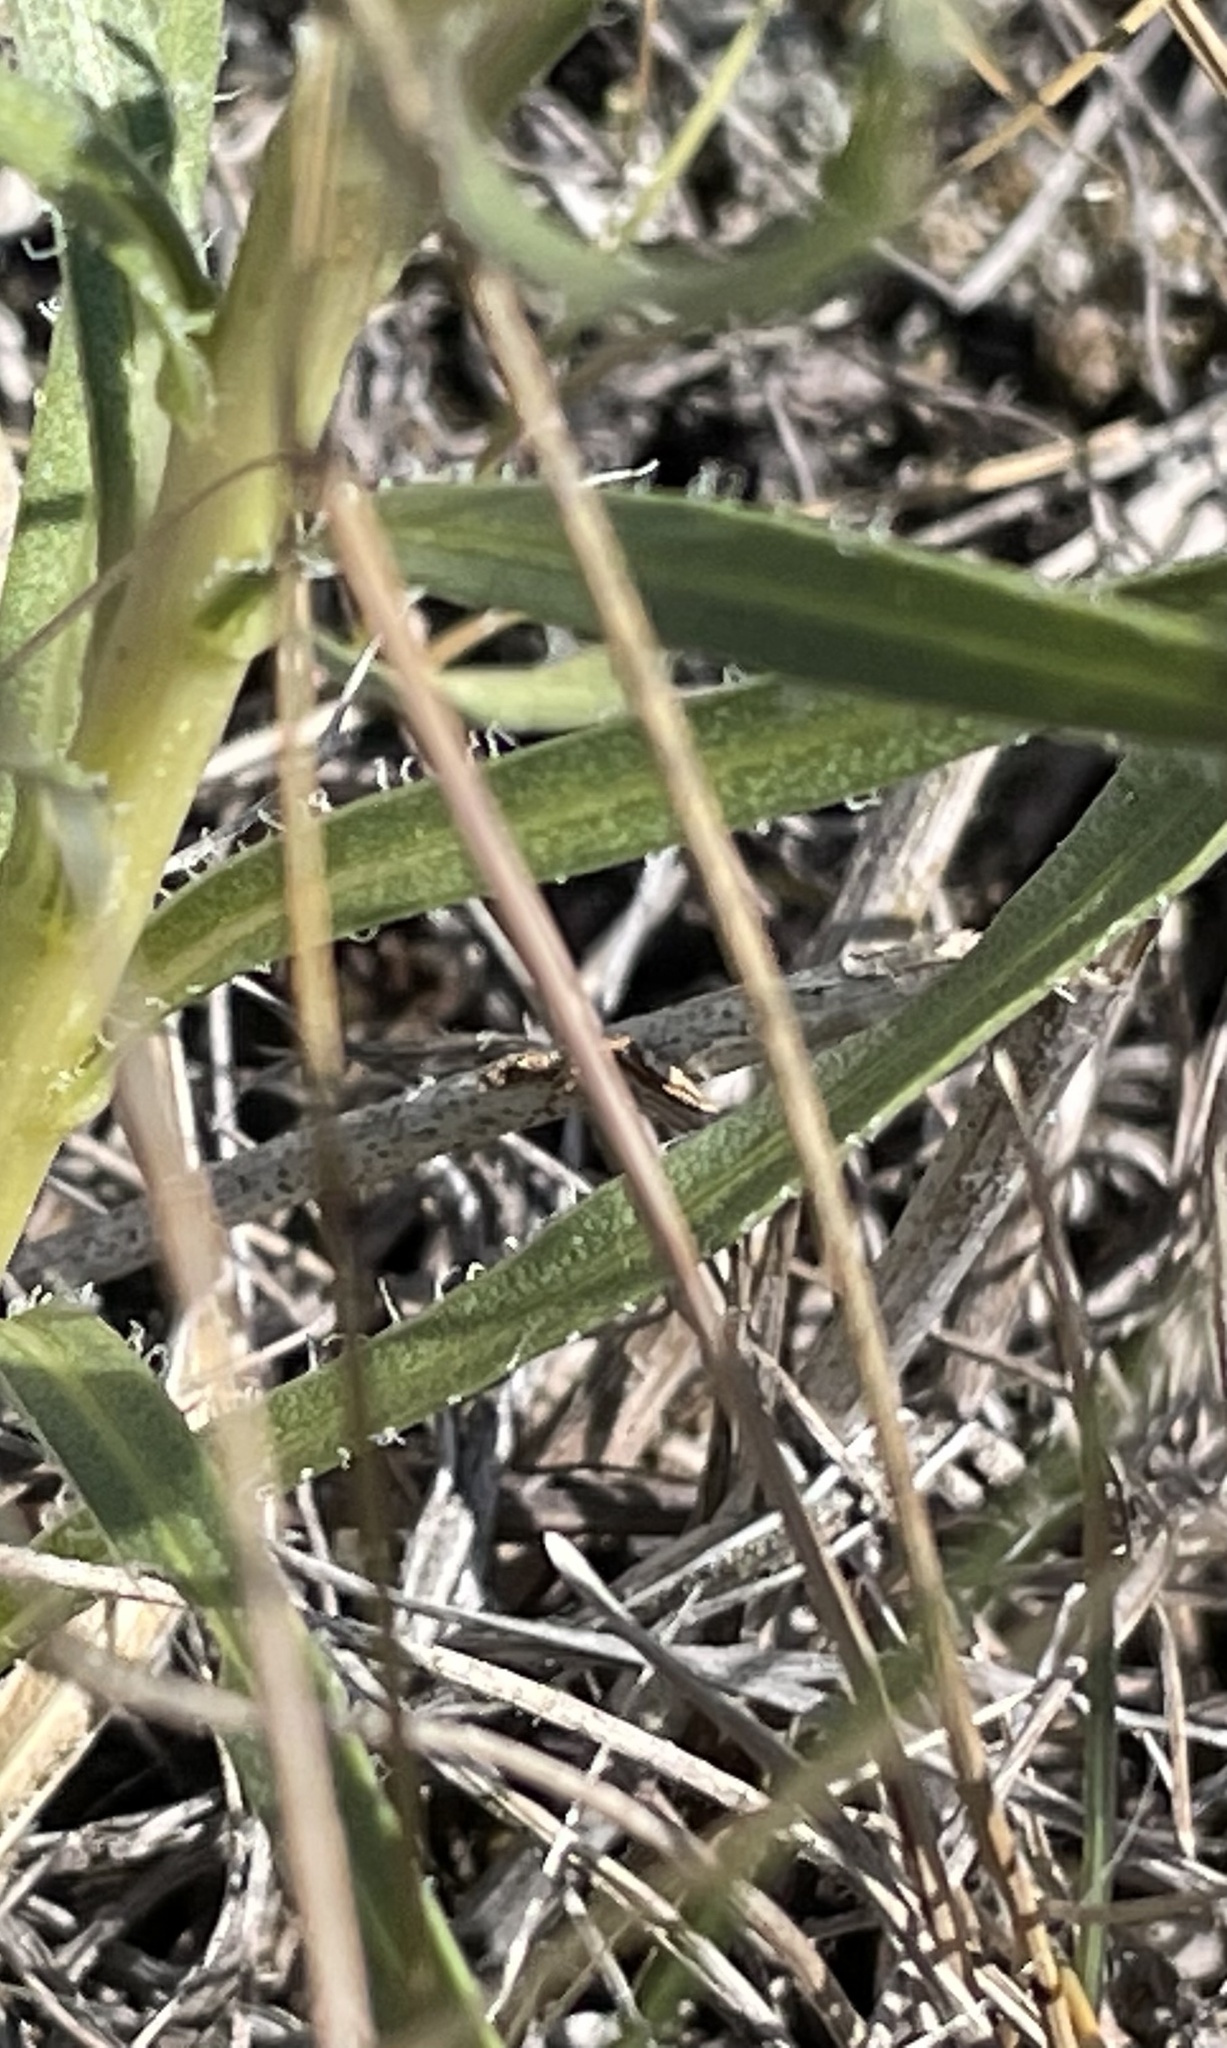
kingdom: Plantae
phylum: Tracheophyta
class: Magnoliopsida
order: Asterales
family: Asteraceae
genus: Liatris
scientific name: Liatris punctata
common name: Dotted gayfeather
